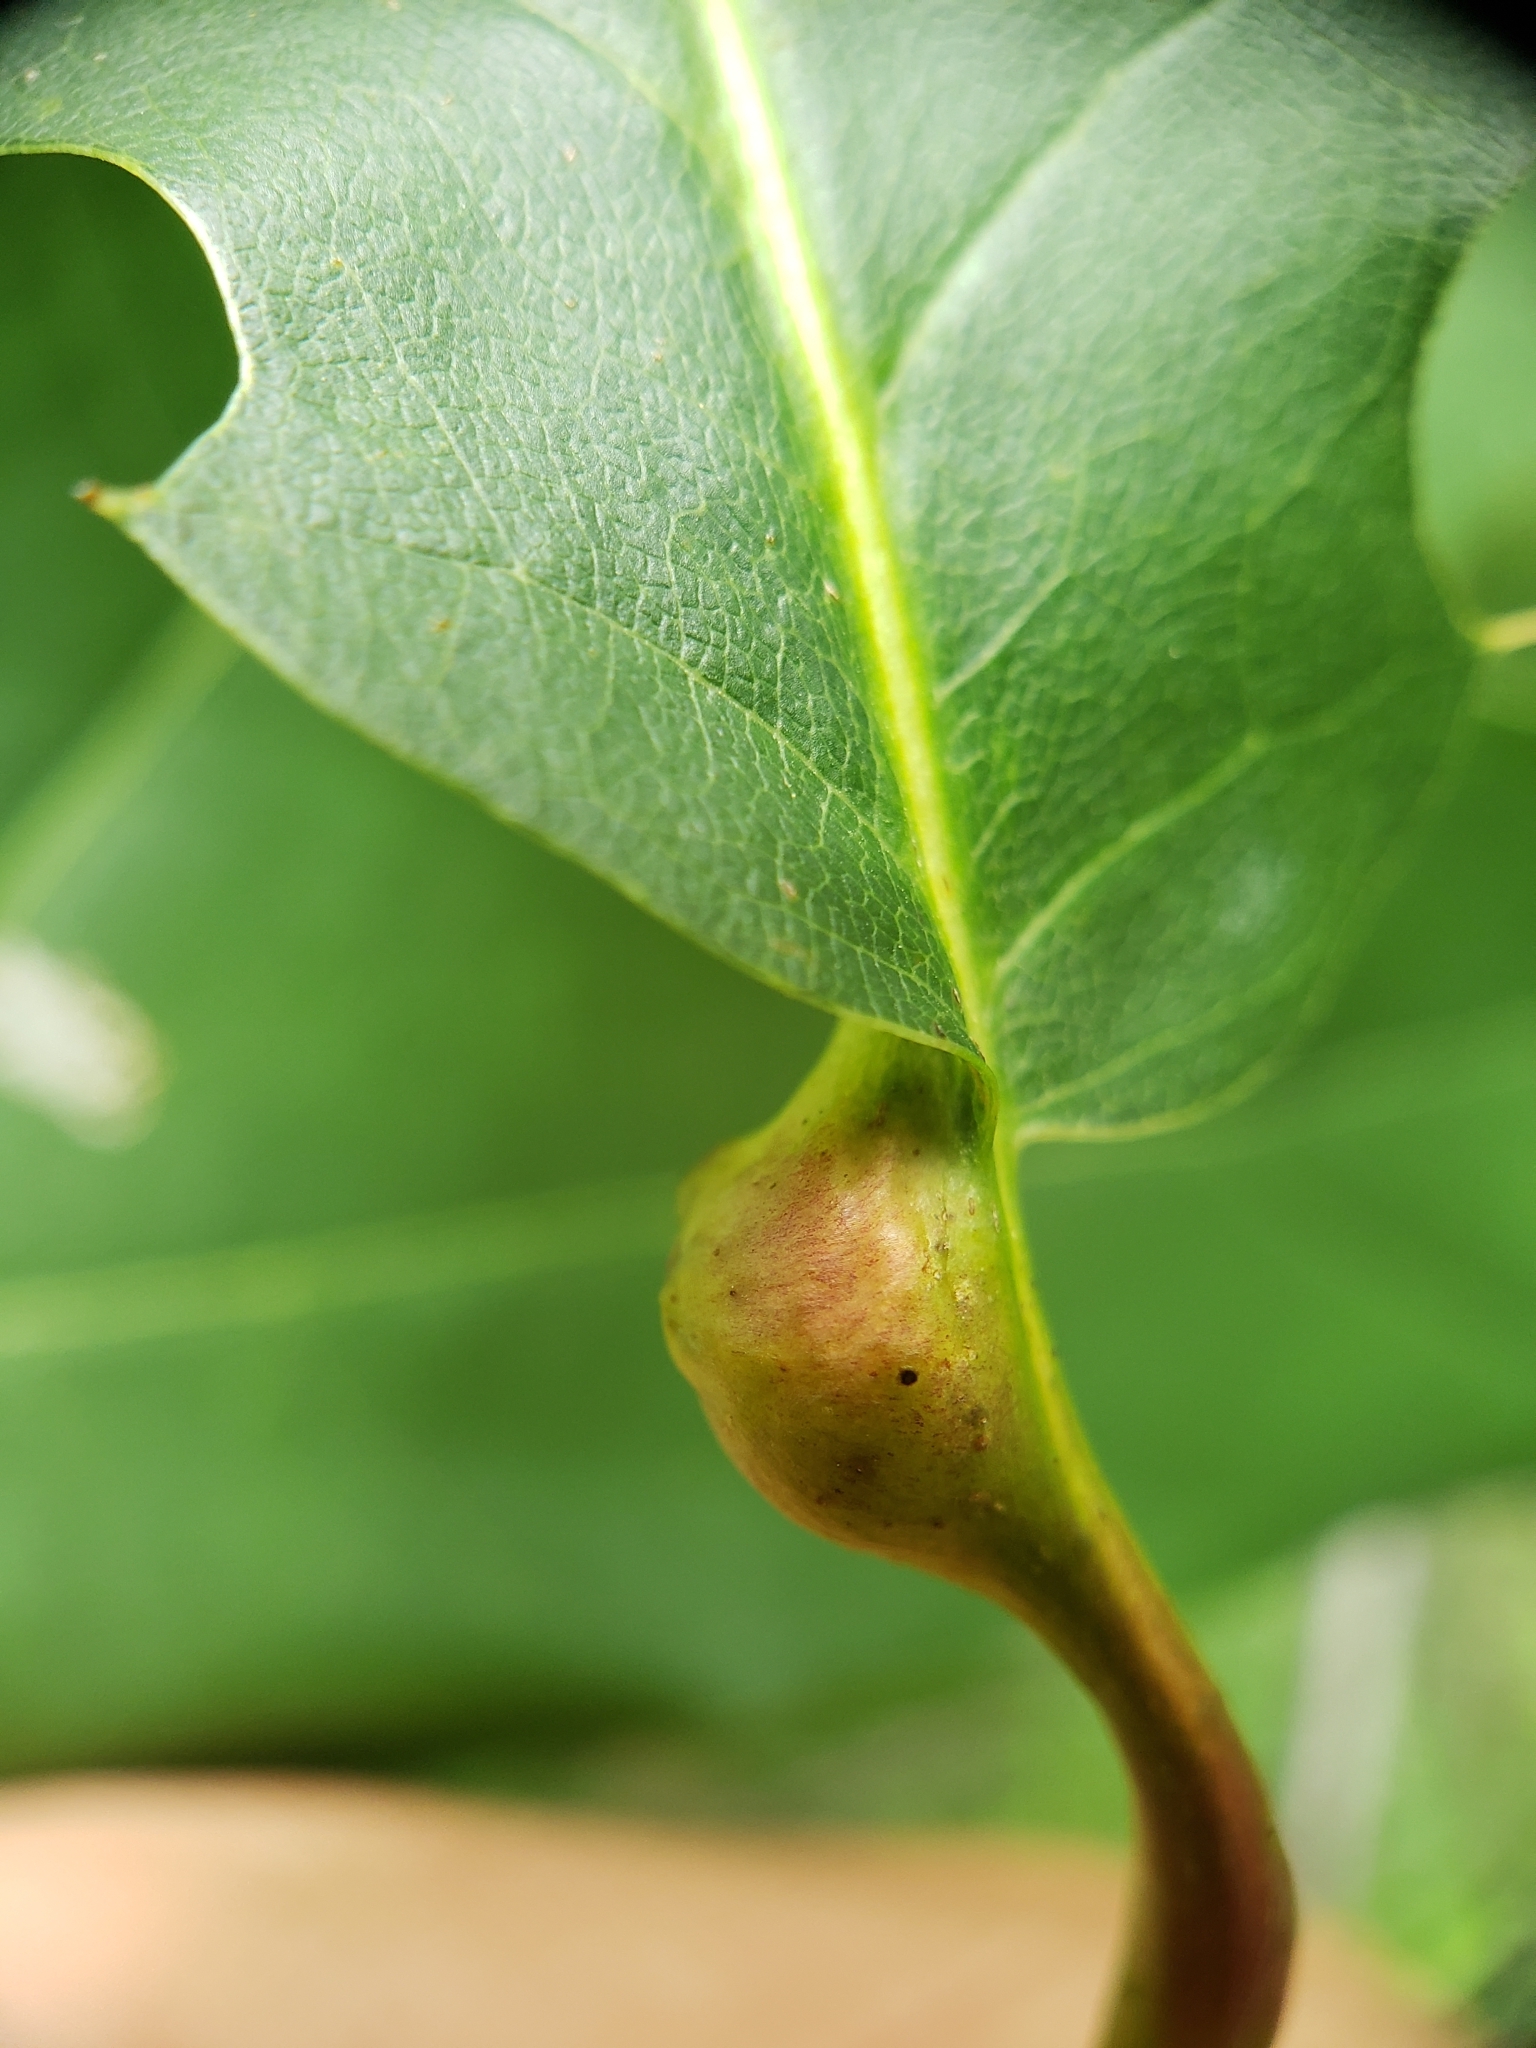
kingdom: Animalia
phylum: Arthropoda
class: Insecta
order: Hymenoptera
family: Cynipidae
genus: Melikaiella
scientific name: Melikaiella tumifica
